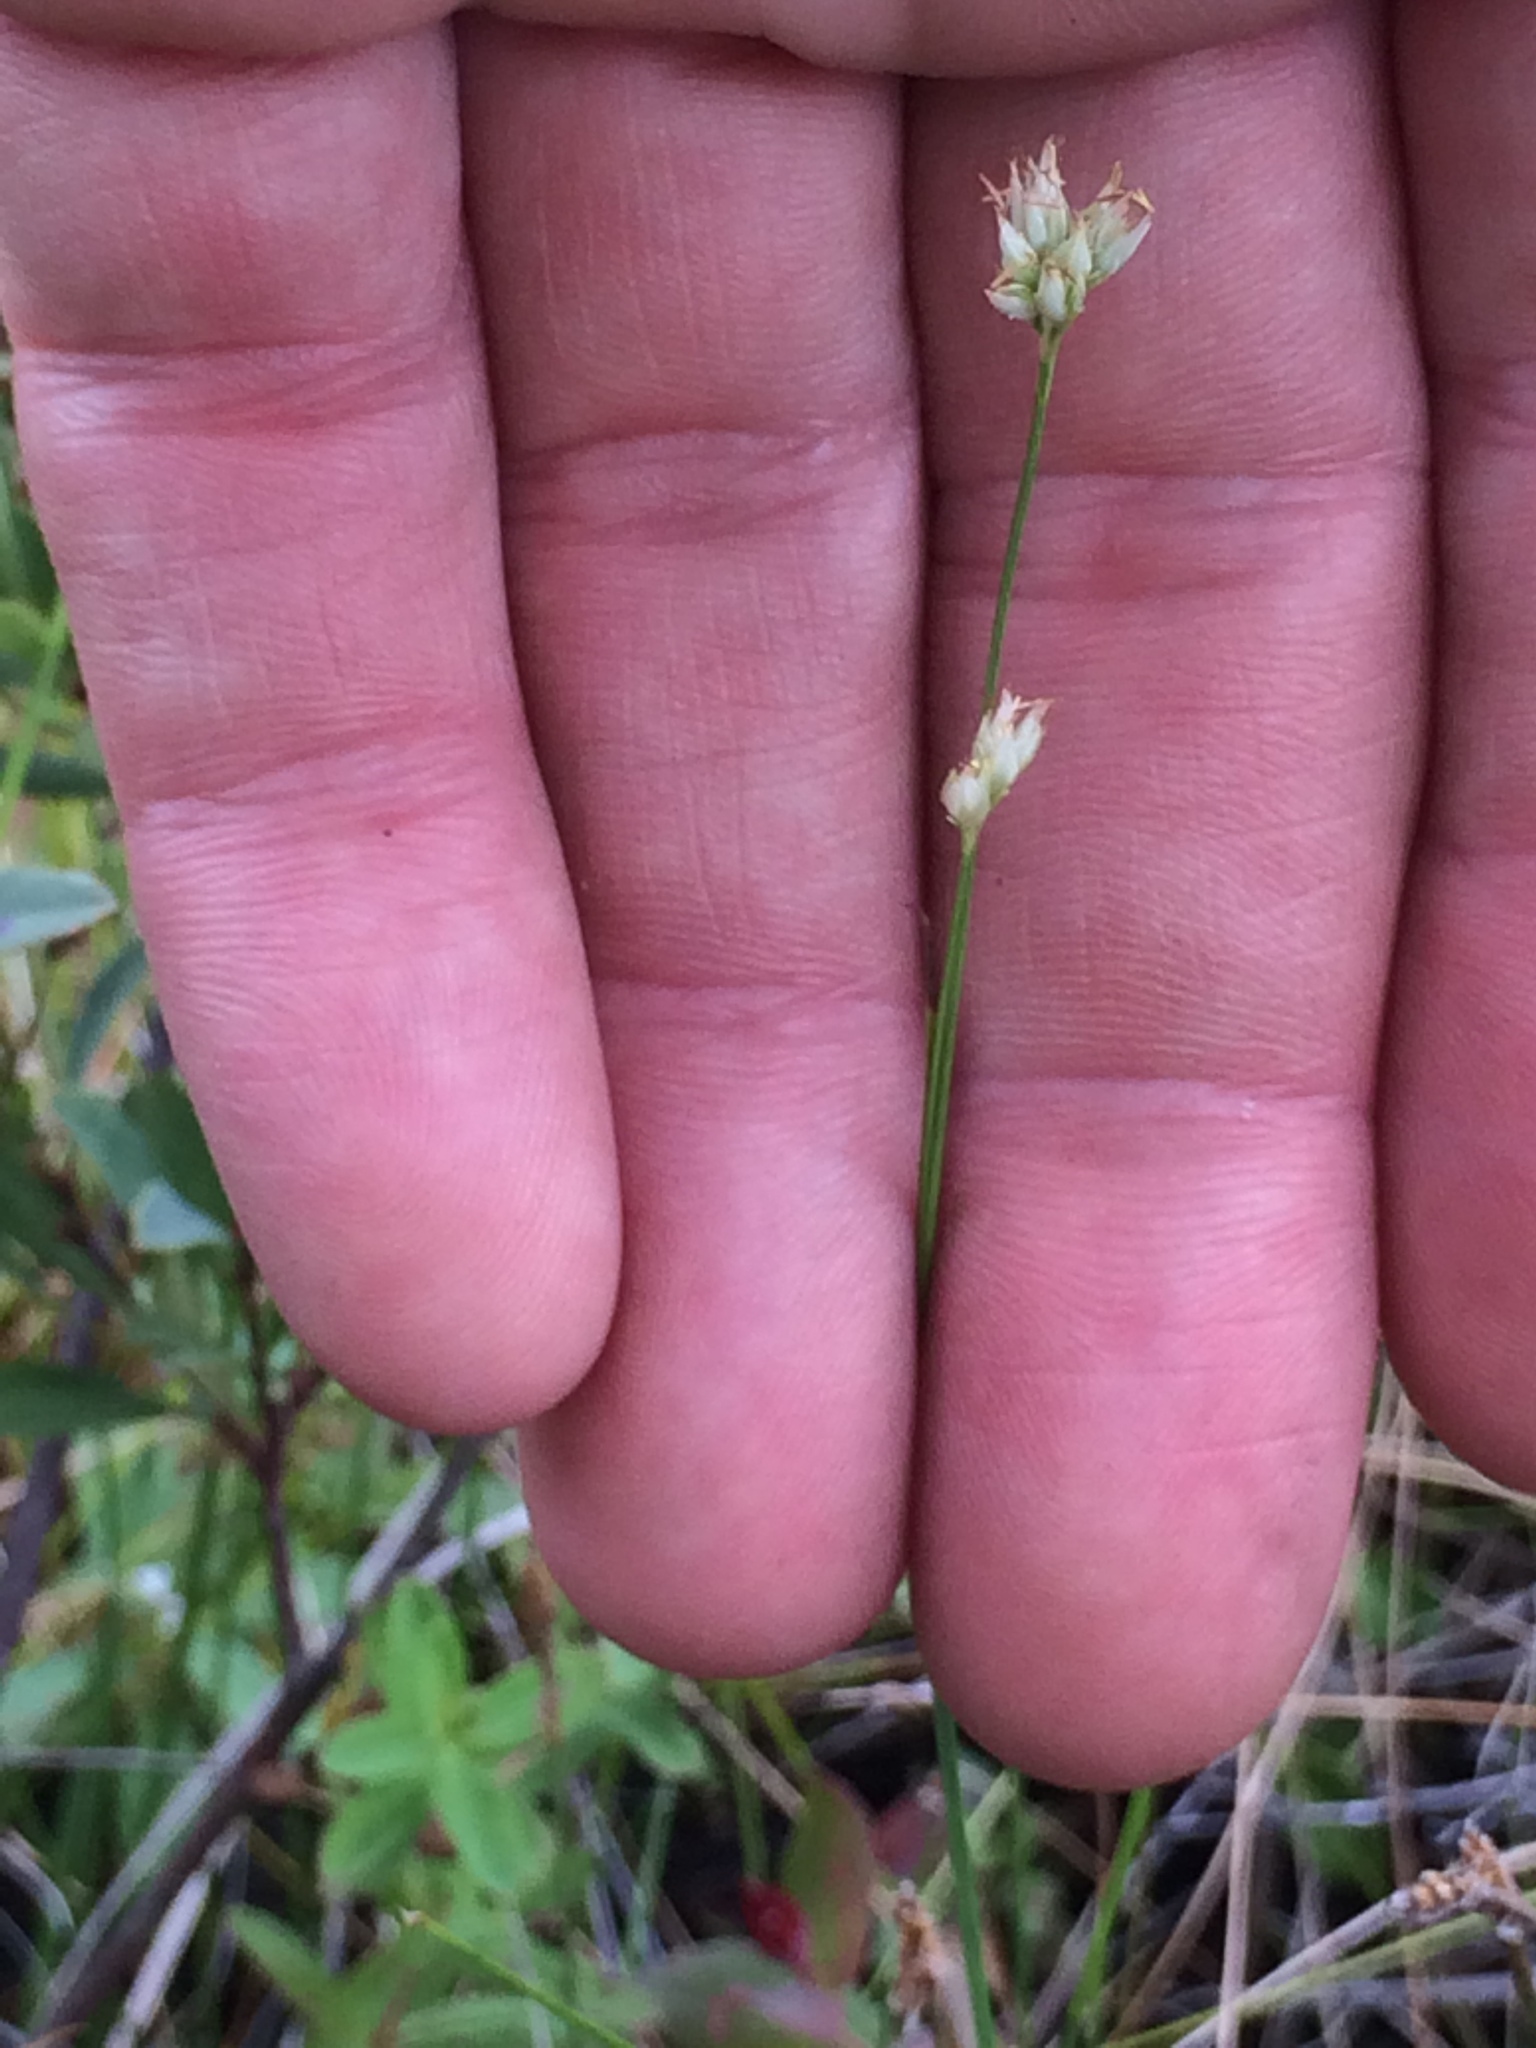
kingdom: Plantae
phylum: Tracheophyta
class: Liliopsida
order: Poales
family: Cyperaceae
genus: Rhynchospora
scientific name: Rhynchospora alba
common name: White beak-sedge
